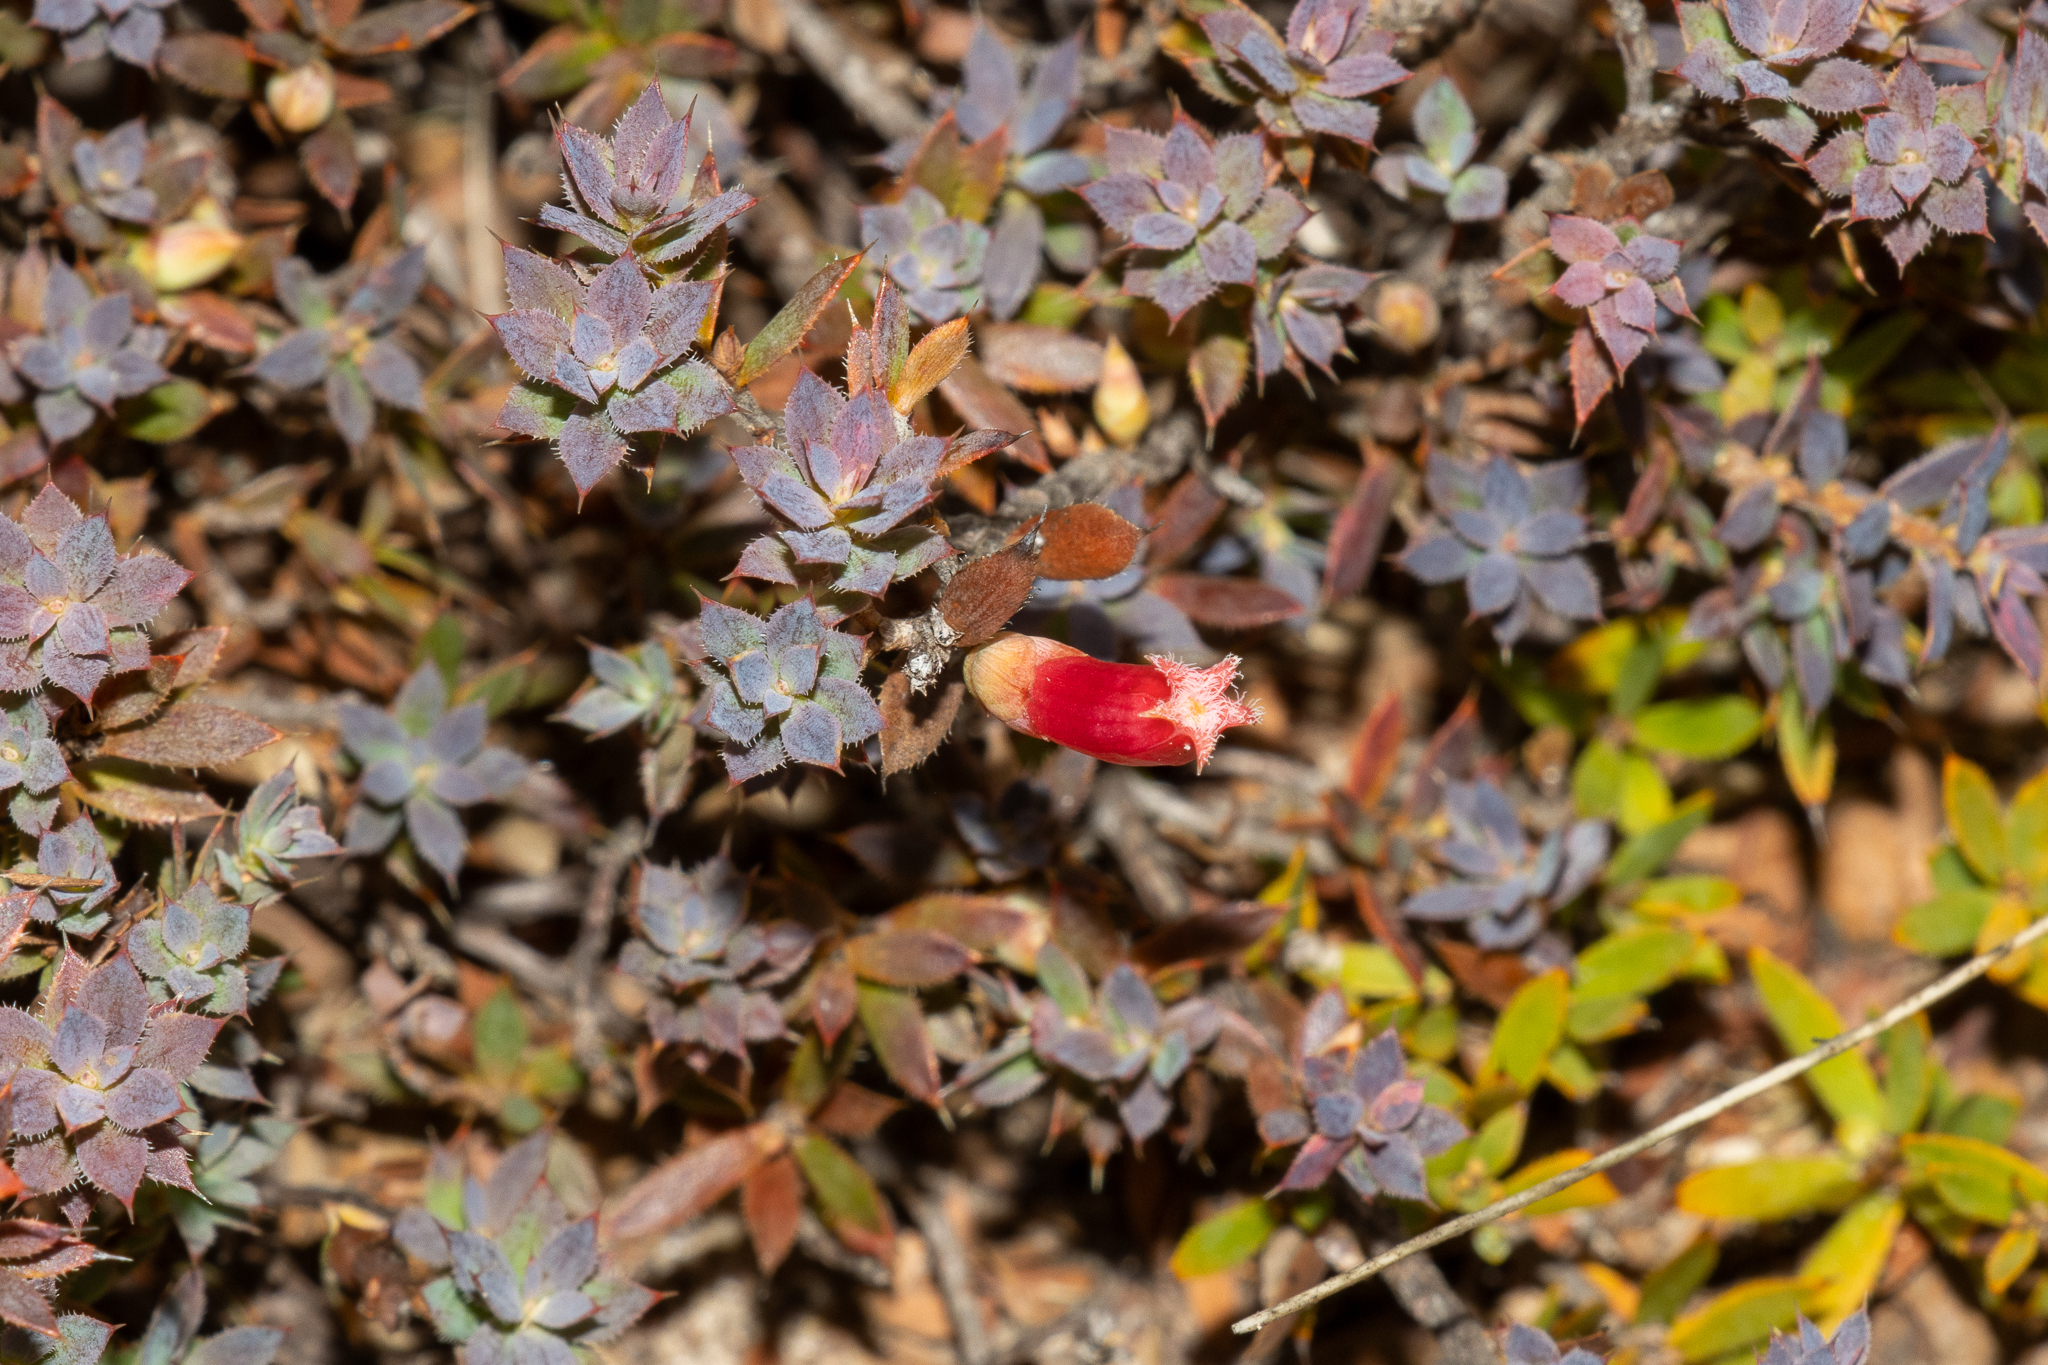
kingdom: Plantae
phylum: Tracheophyta
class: Magnoliopsida
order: Ericales
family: Ericaceae
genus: Styphelia
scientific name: Styphelia humifusa
